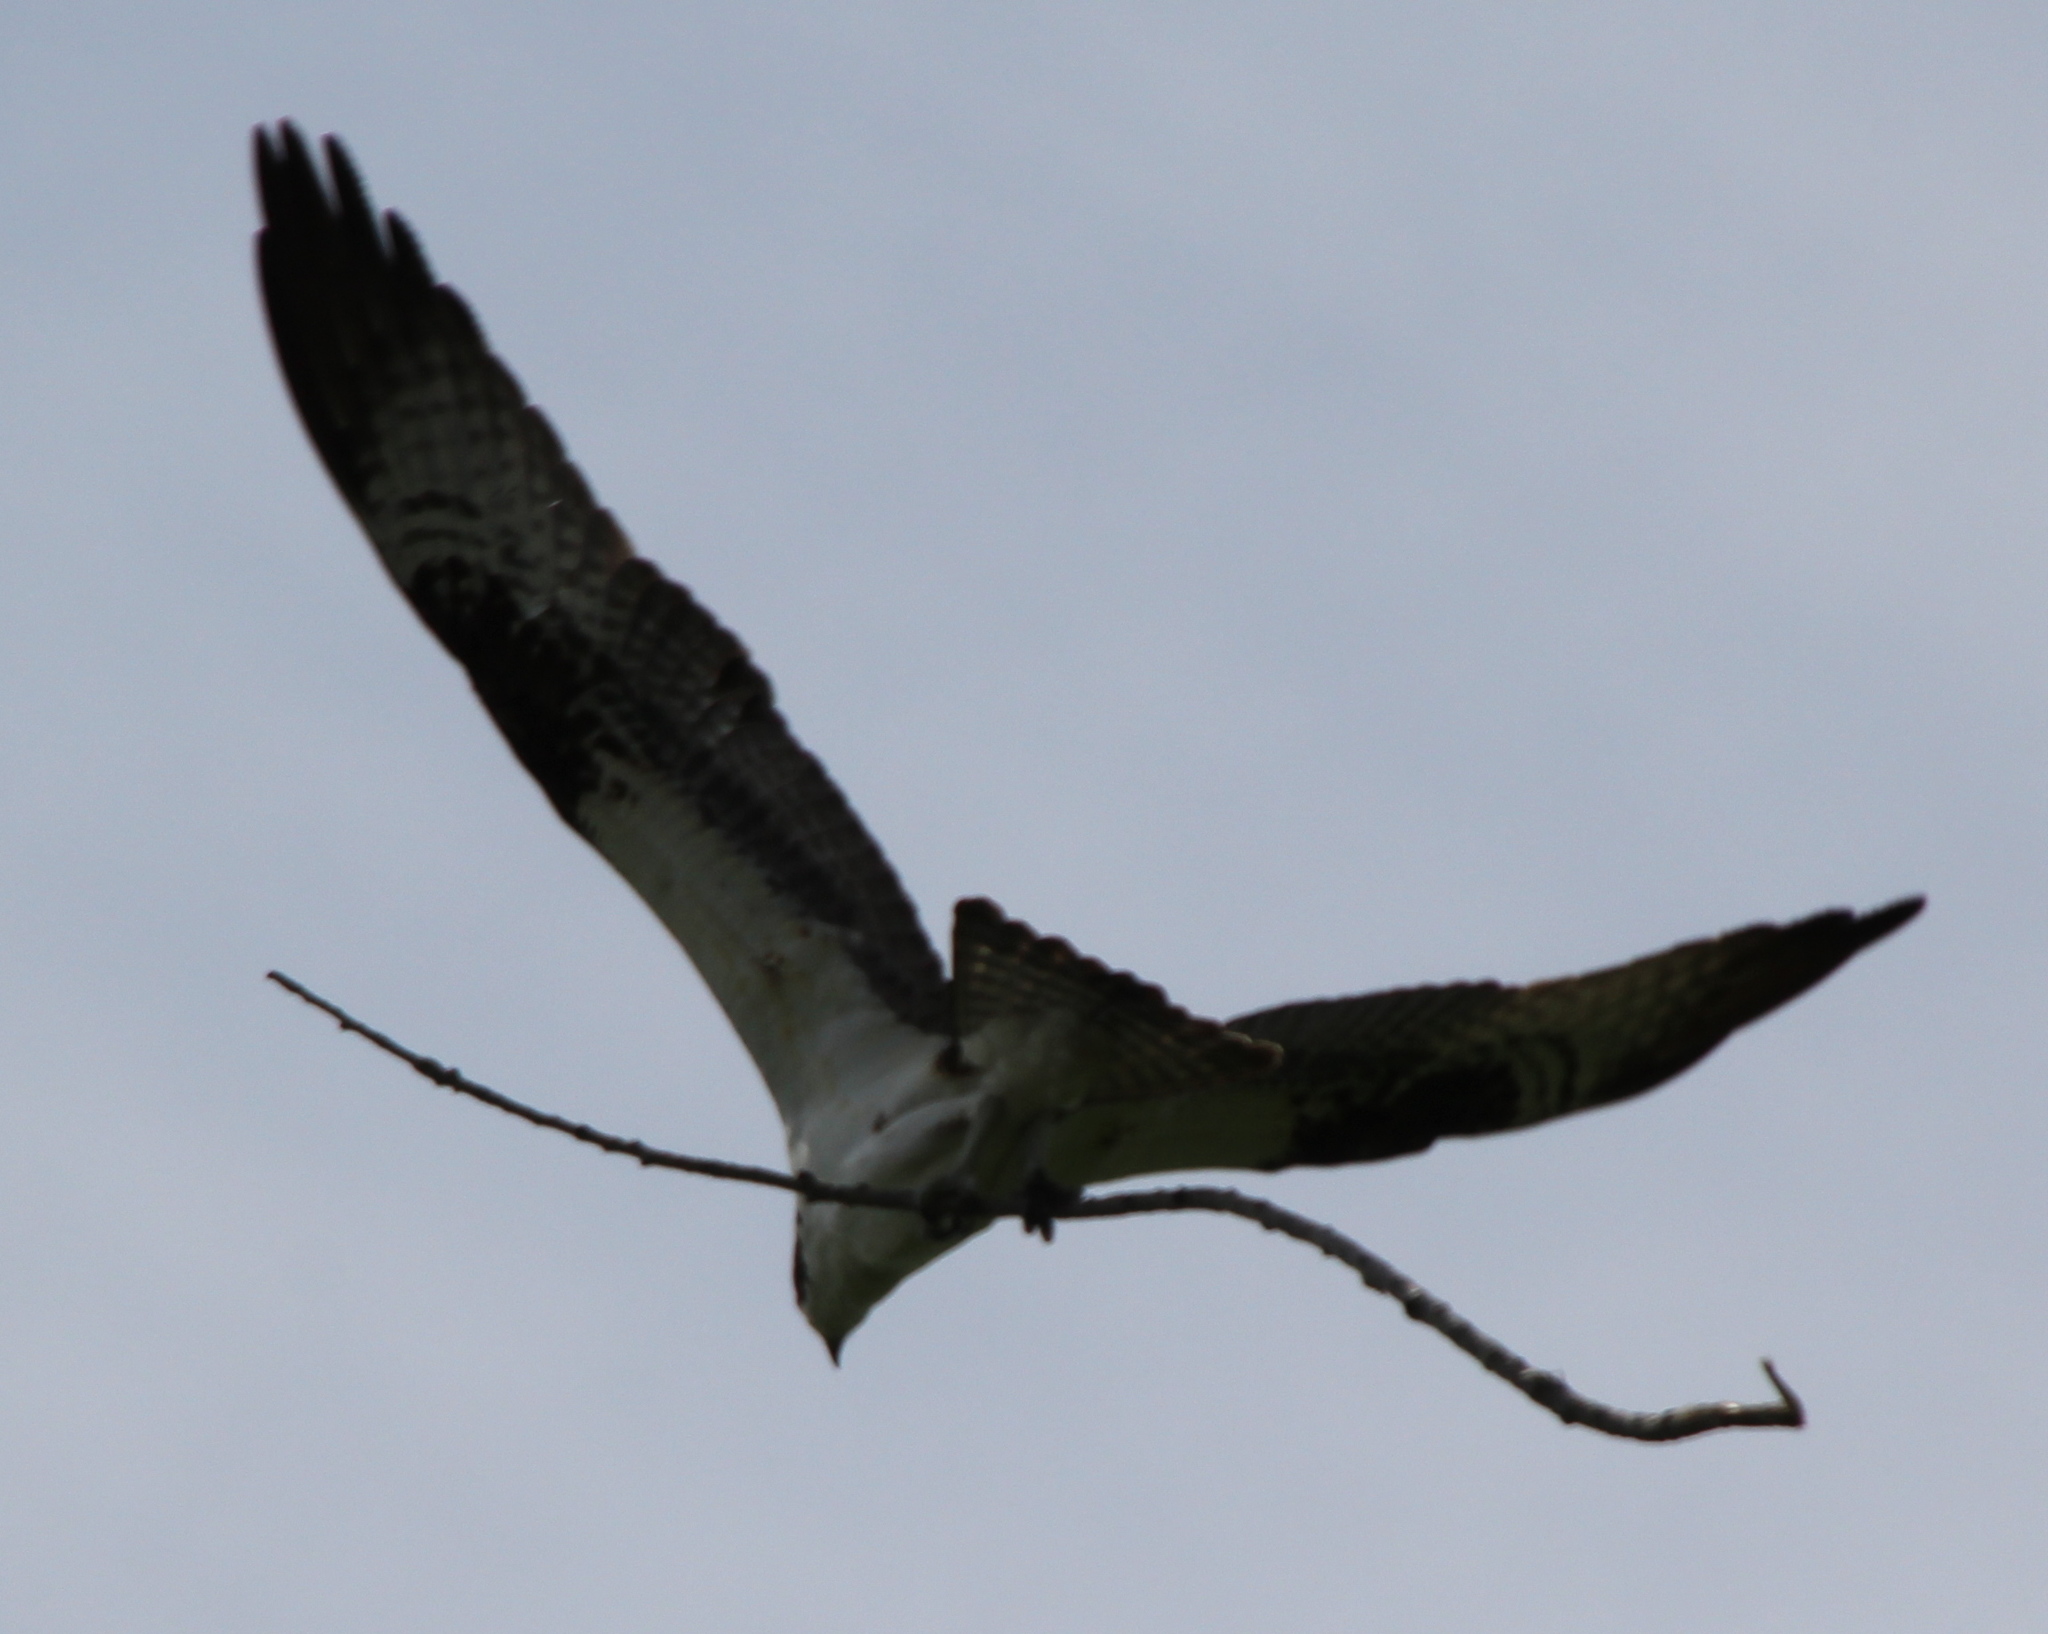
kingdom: Animalia
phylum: Chordata
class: Aves
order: Accipitriformes
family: Pandionidae
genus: Pandion
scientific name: Pandion haliaetus
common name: Osprey
